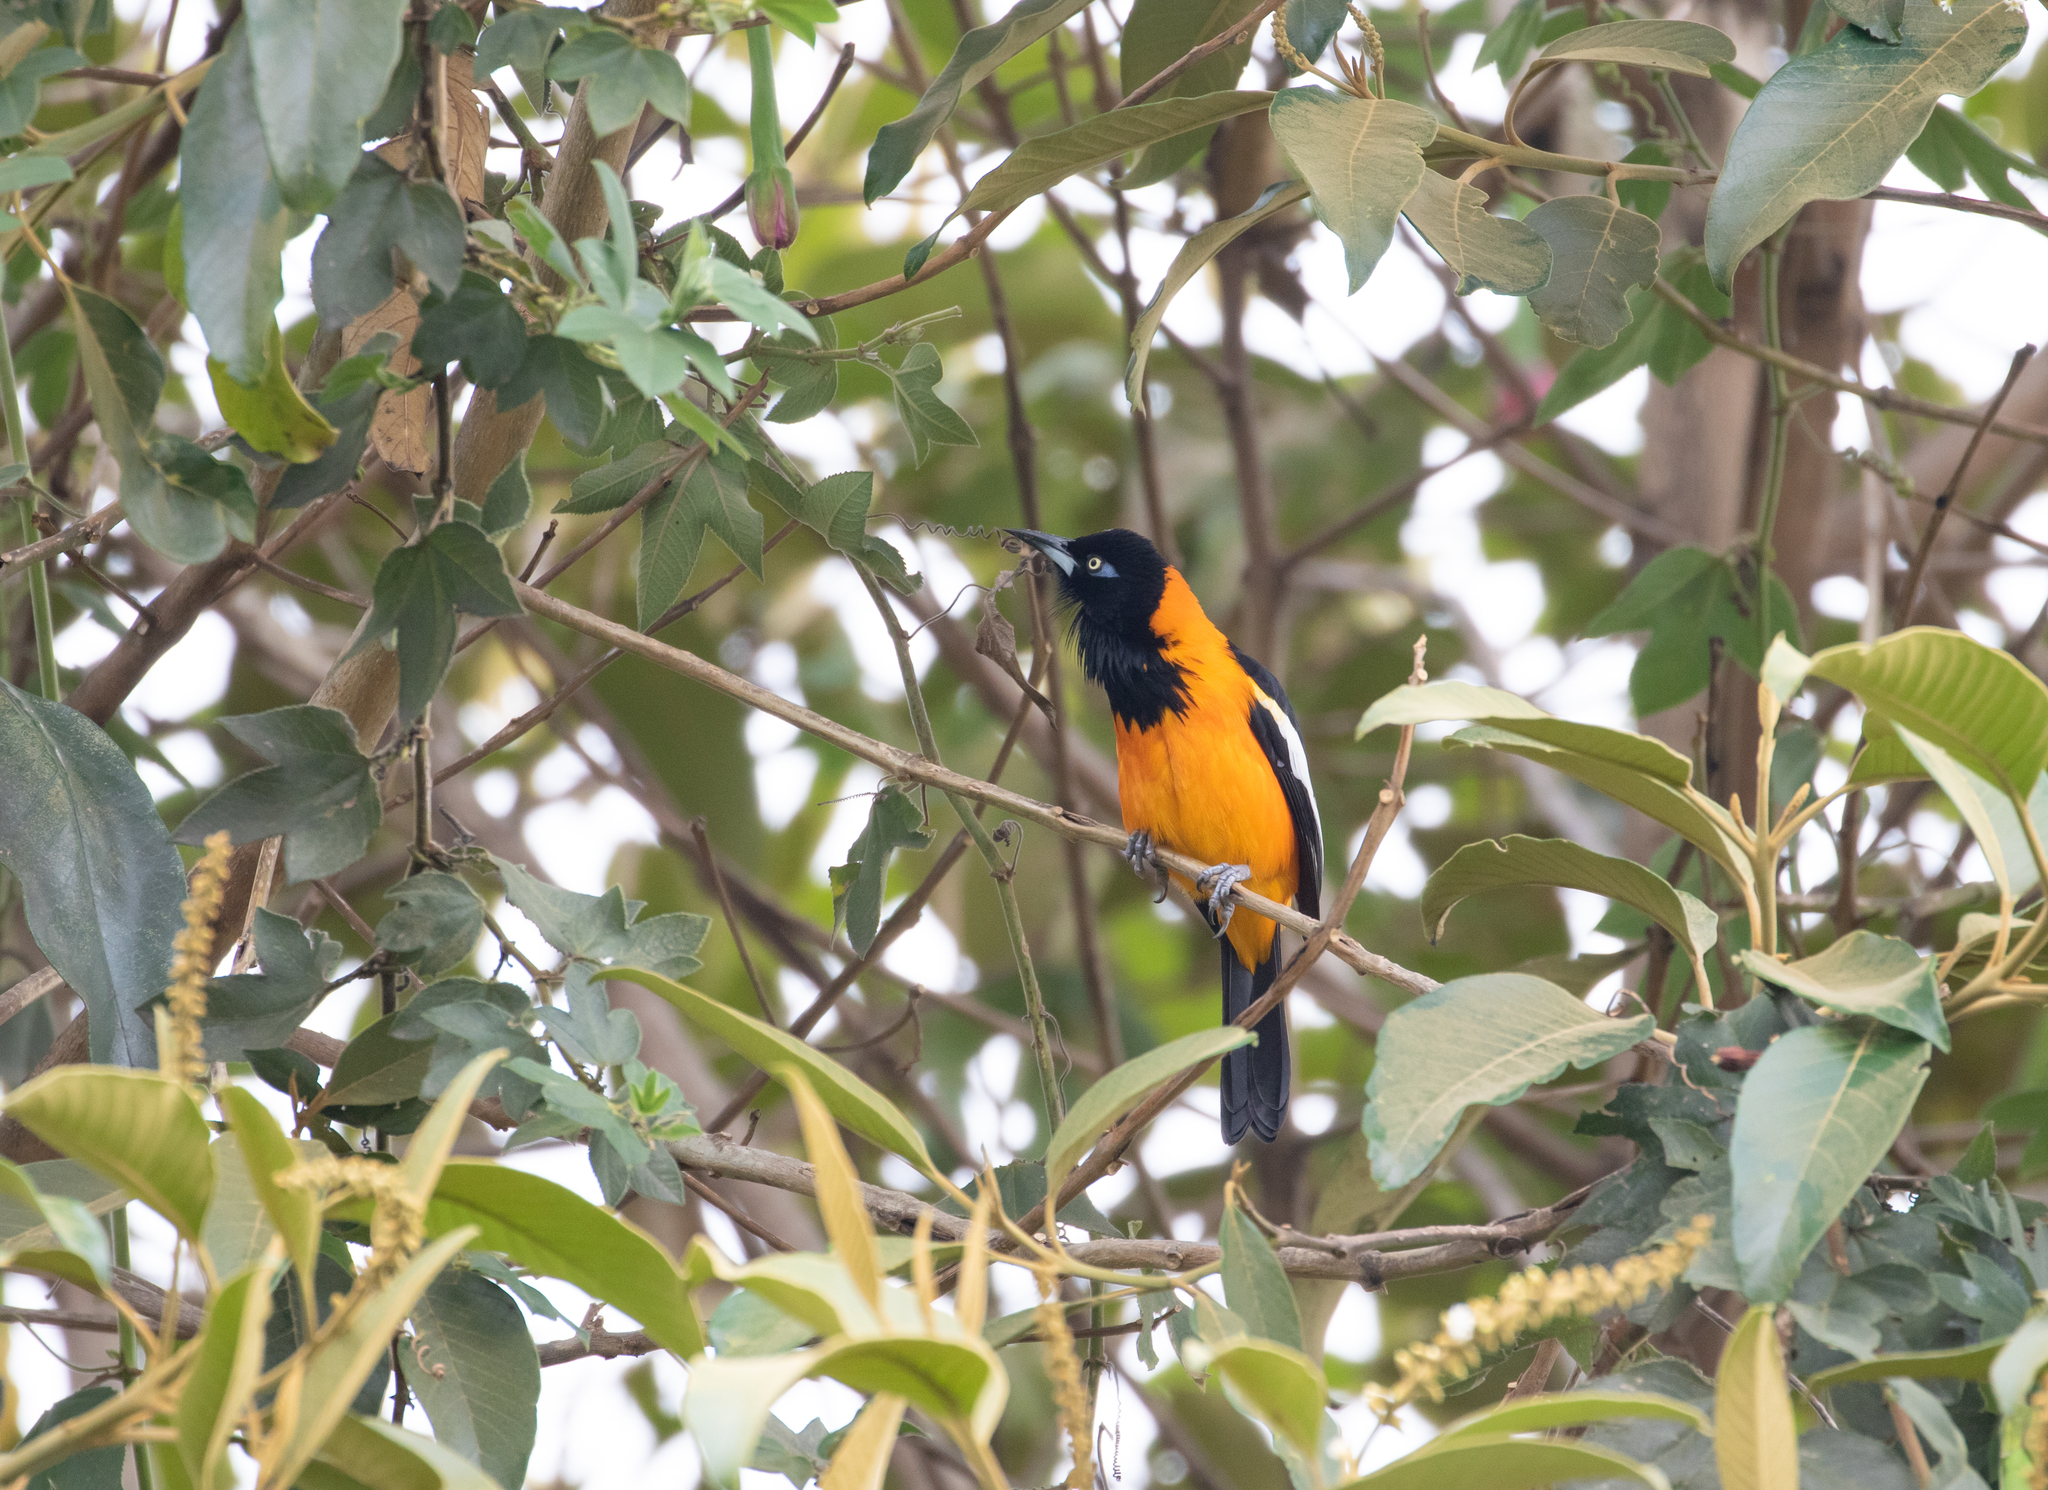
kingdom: Animalia
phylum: Chordata
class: Aves
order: Passeriformes
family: Icteridae
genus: Icterus
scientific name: Icterus icterus
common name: Venezuelan troupial
